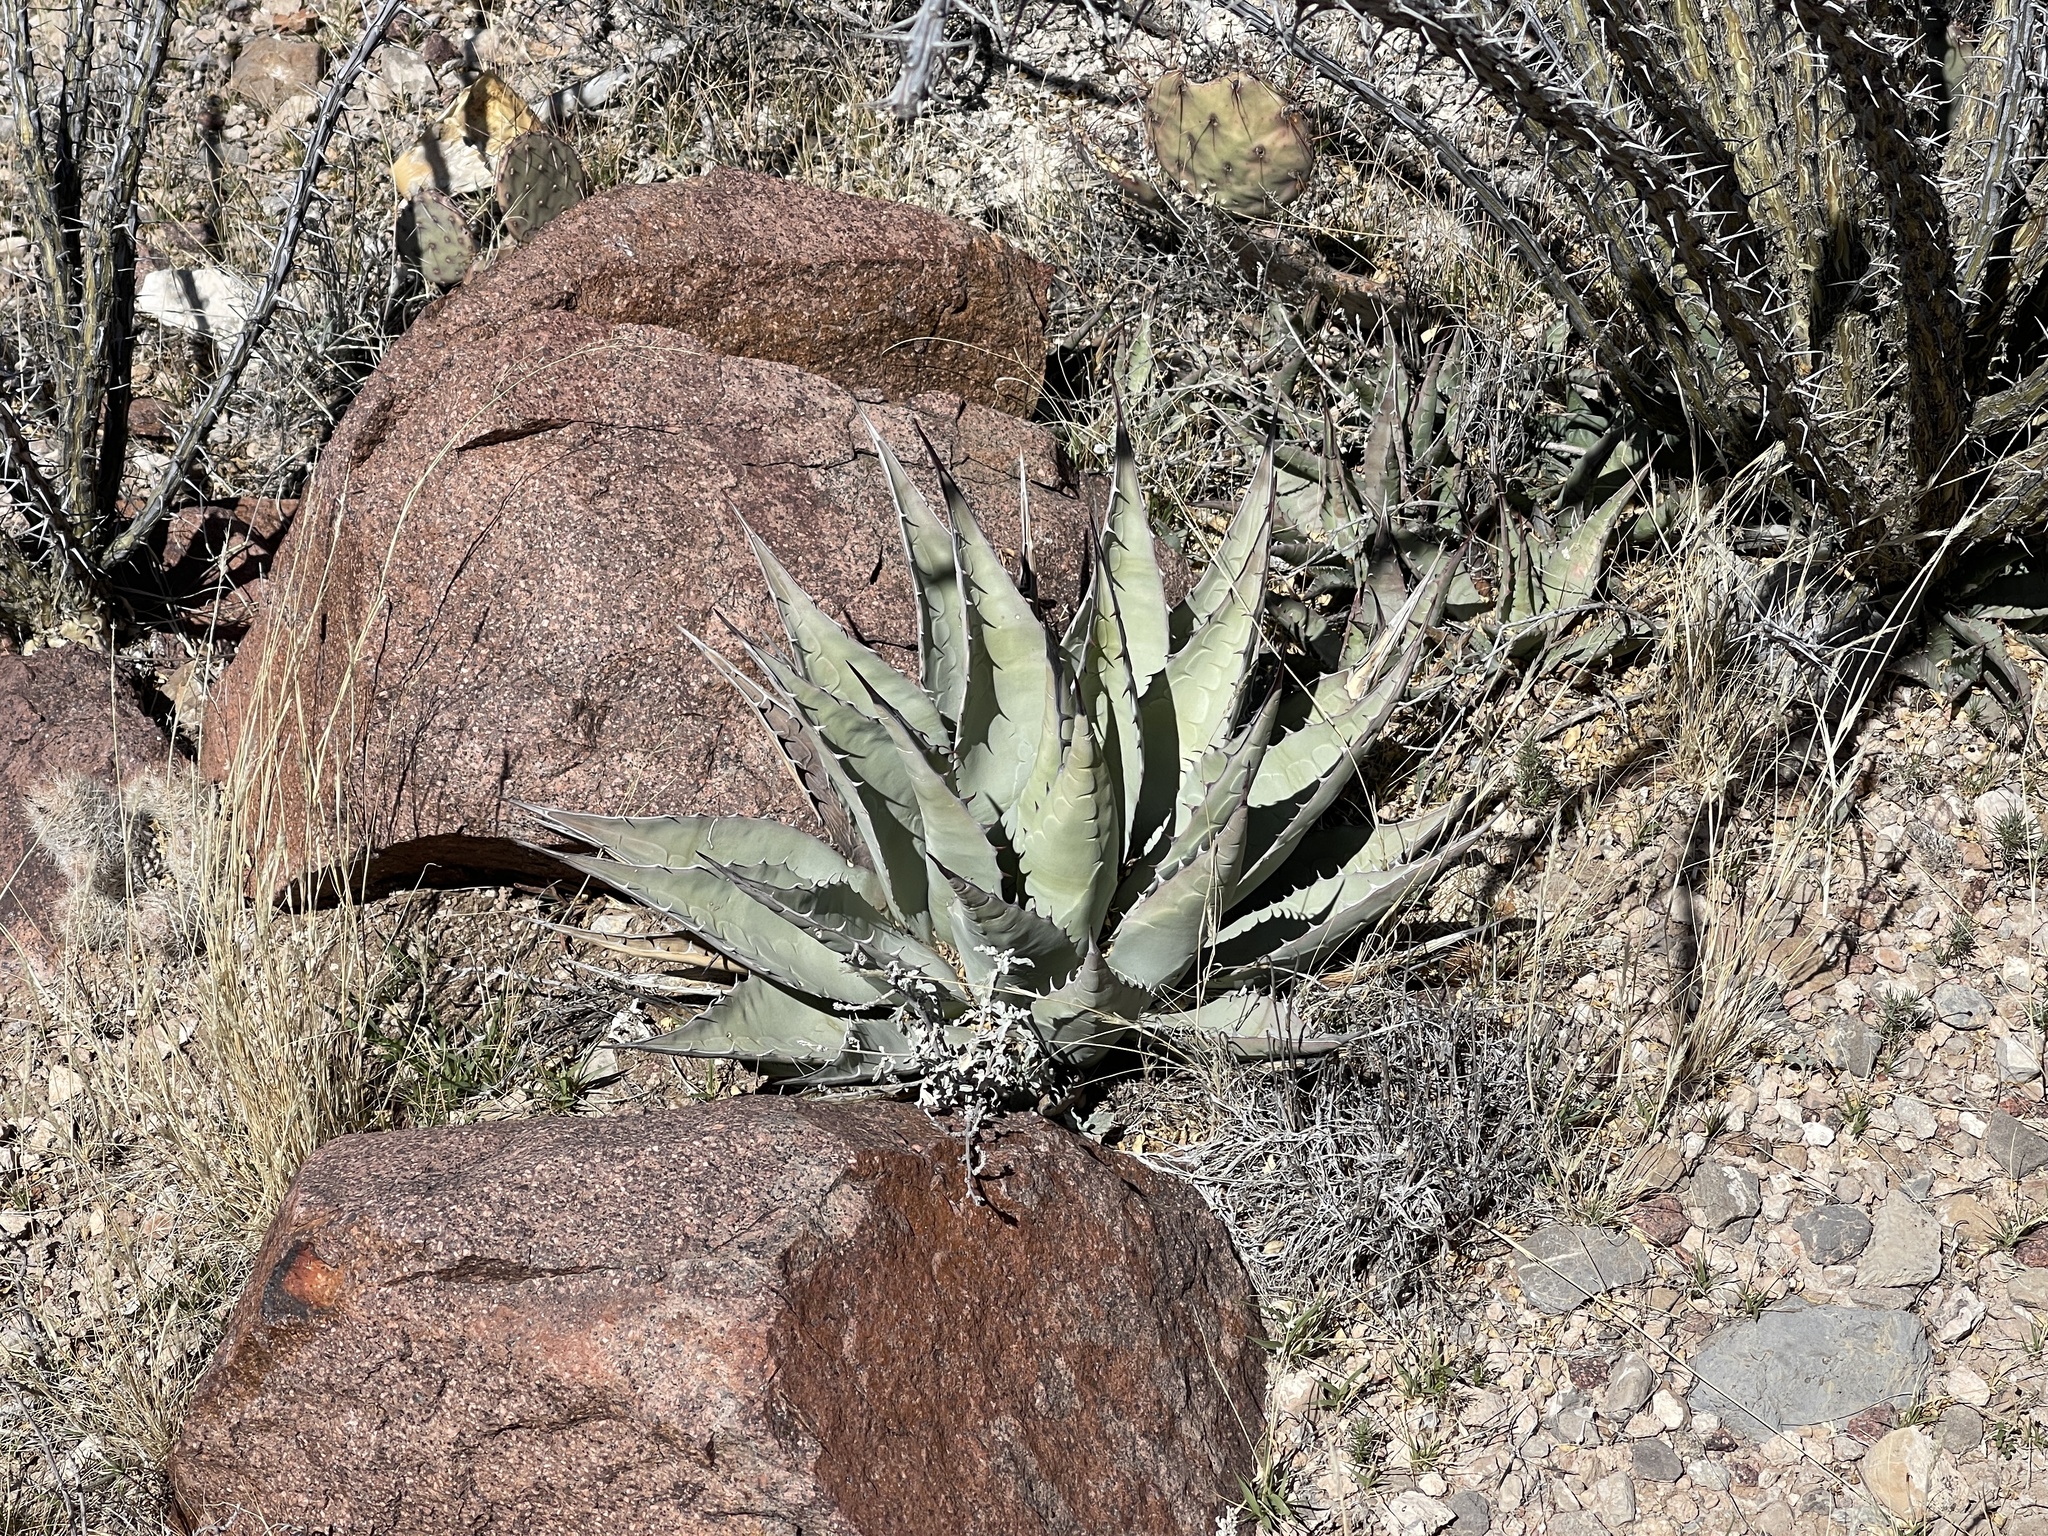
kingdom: Plantae
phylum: Tracheophyta
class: Liliopsida
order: Asparagales
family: Asparagaceae
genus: Agave
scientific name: Agave parryi
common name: Parry's agave
